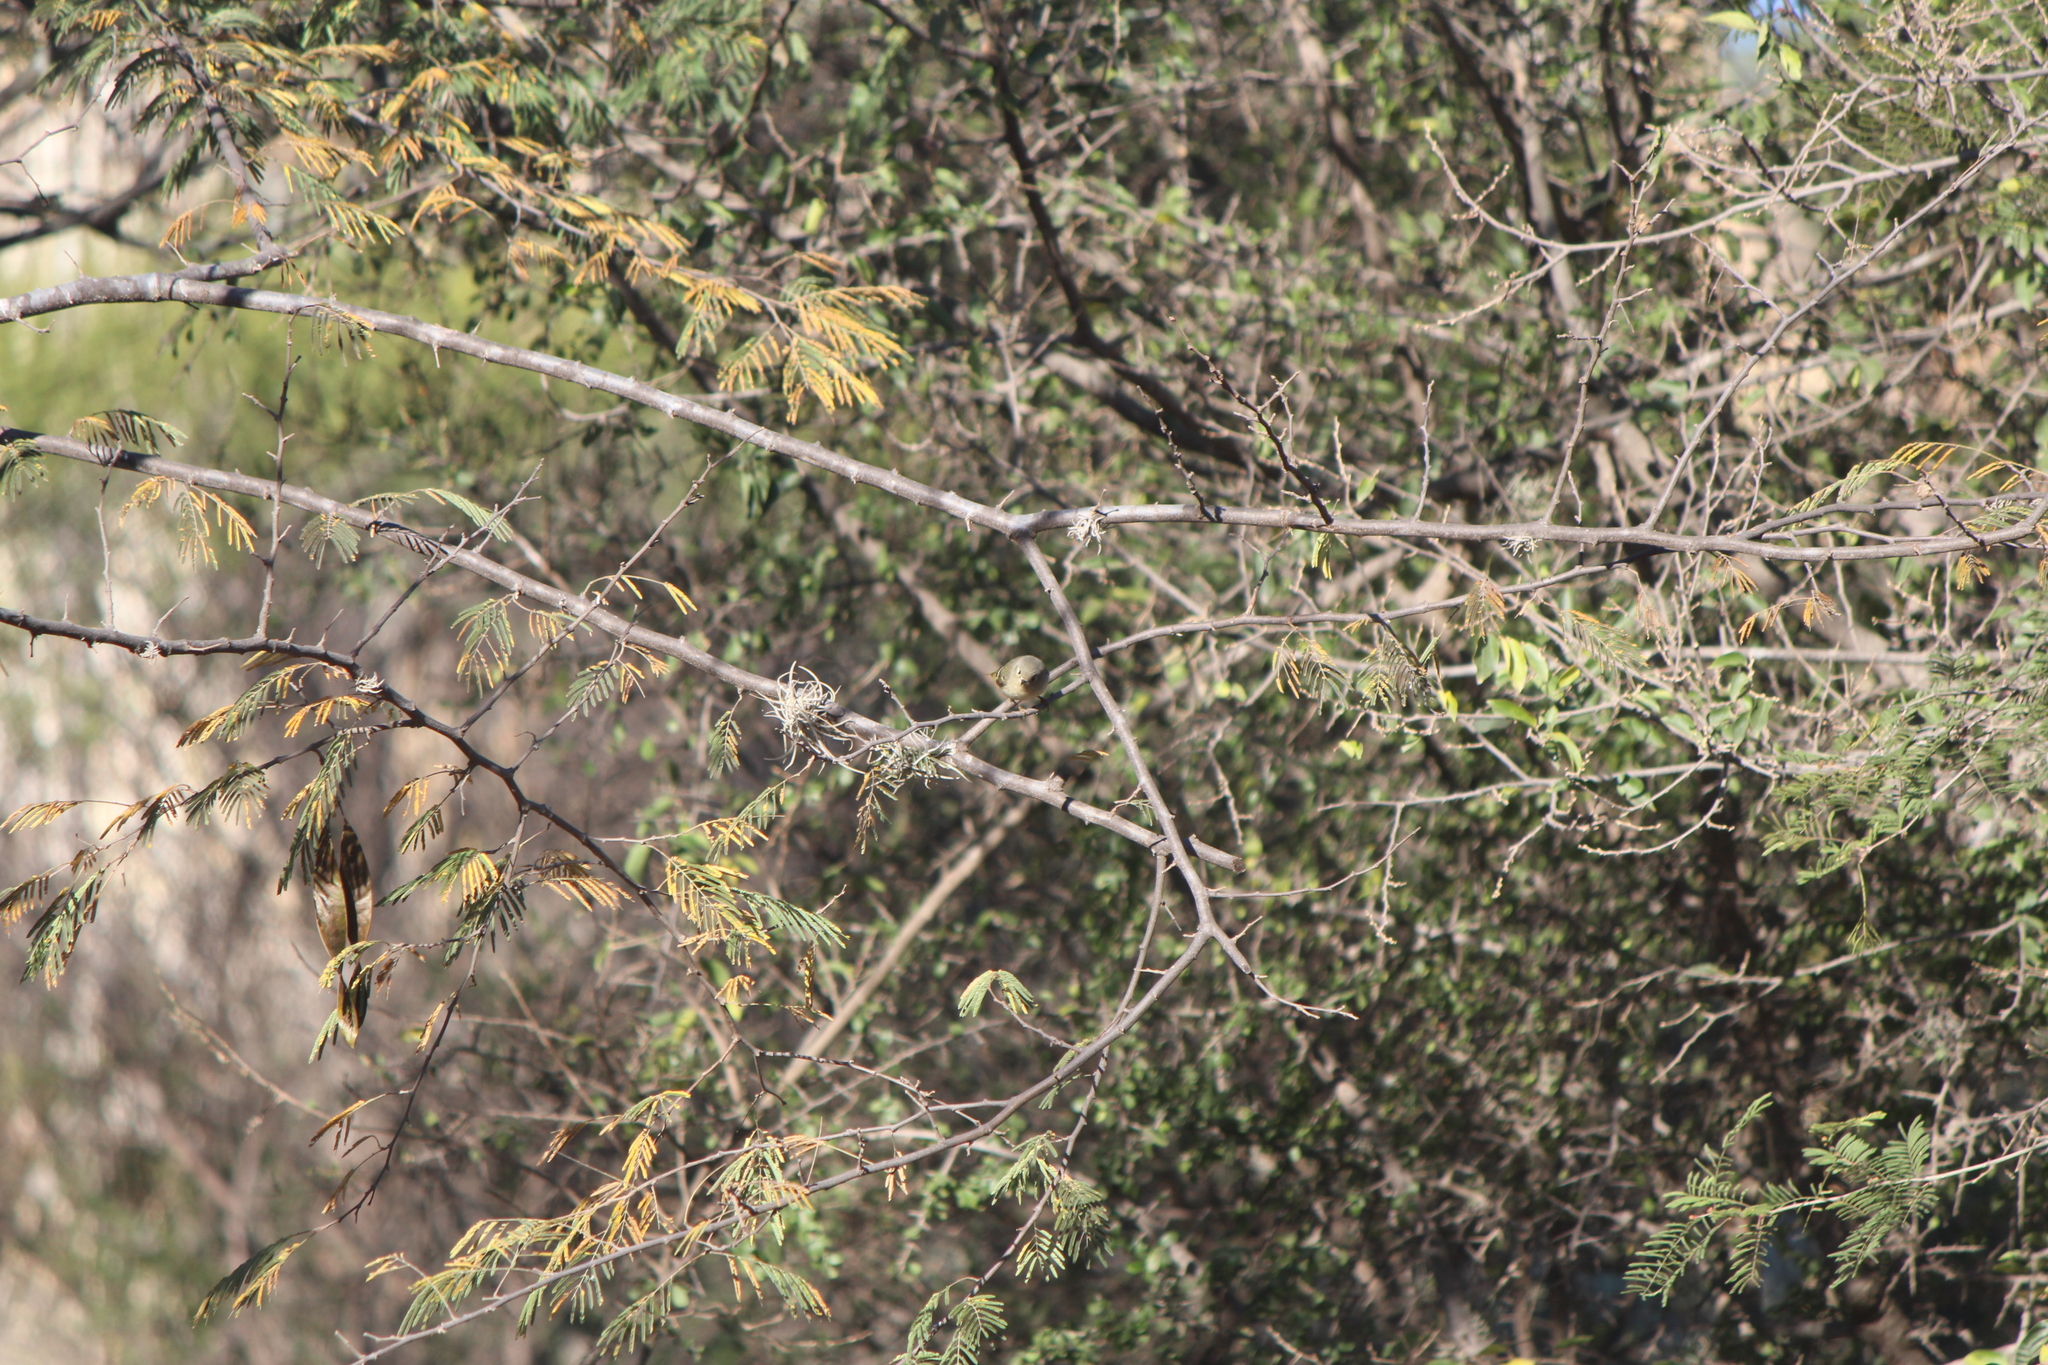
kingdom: Animalia
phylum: Chordata
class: Aves
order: Passeriformes
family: Regulidae
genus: Regulus
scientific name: Regulus calendula
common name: Ruby-crowned kinglet
